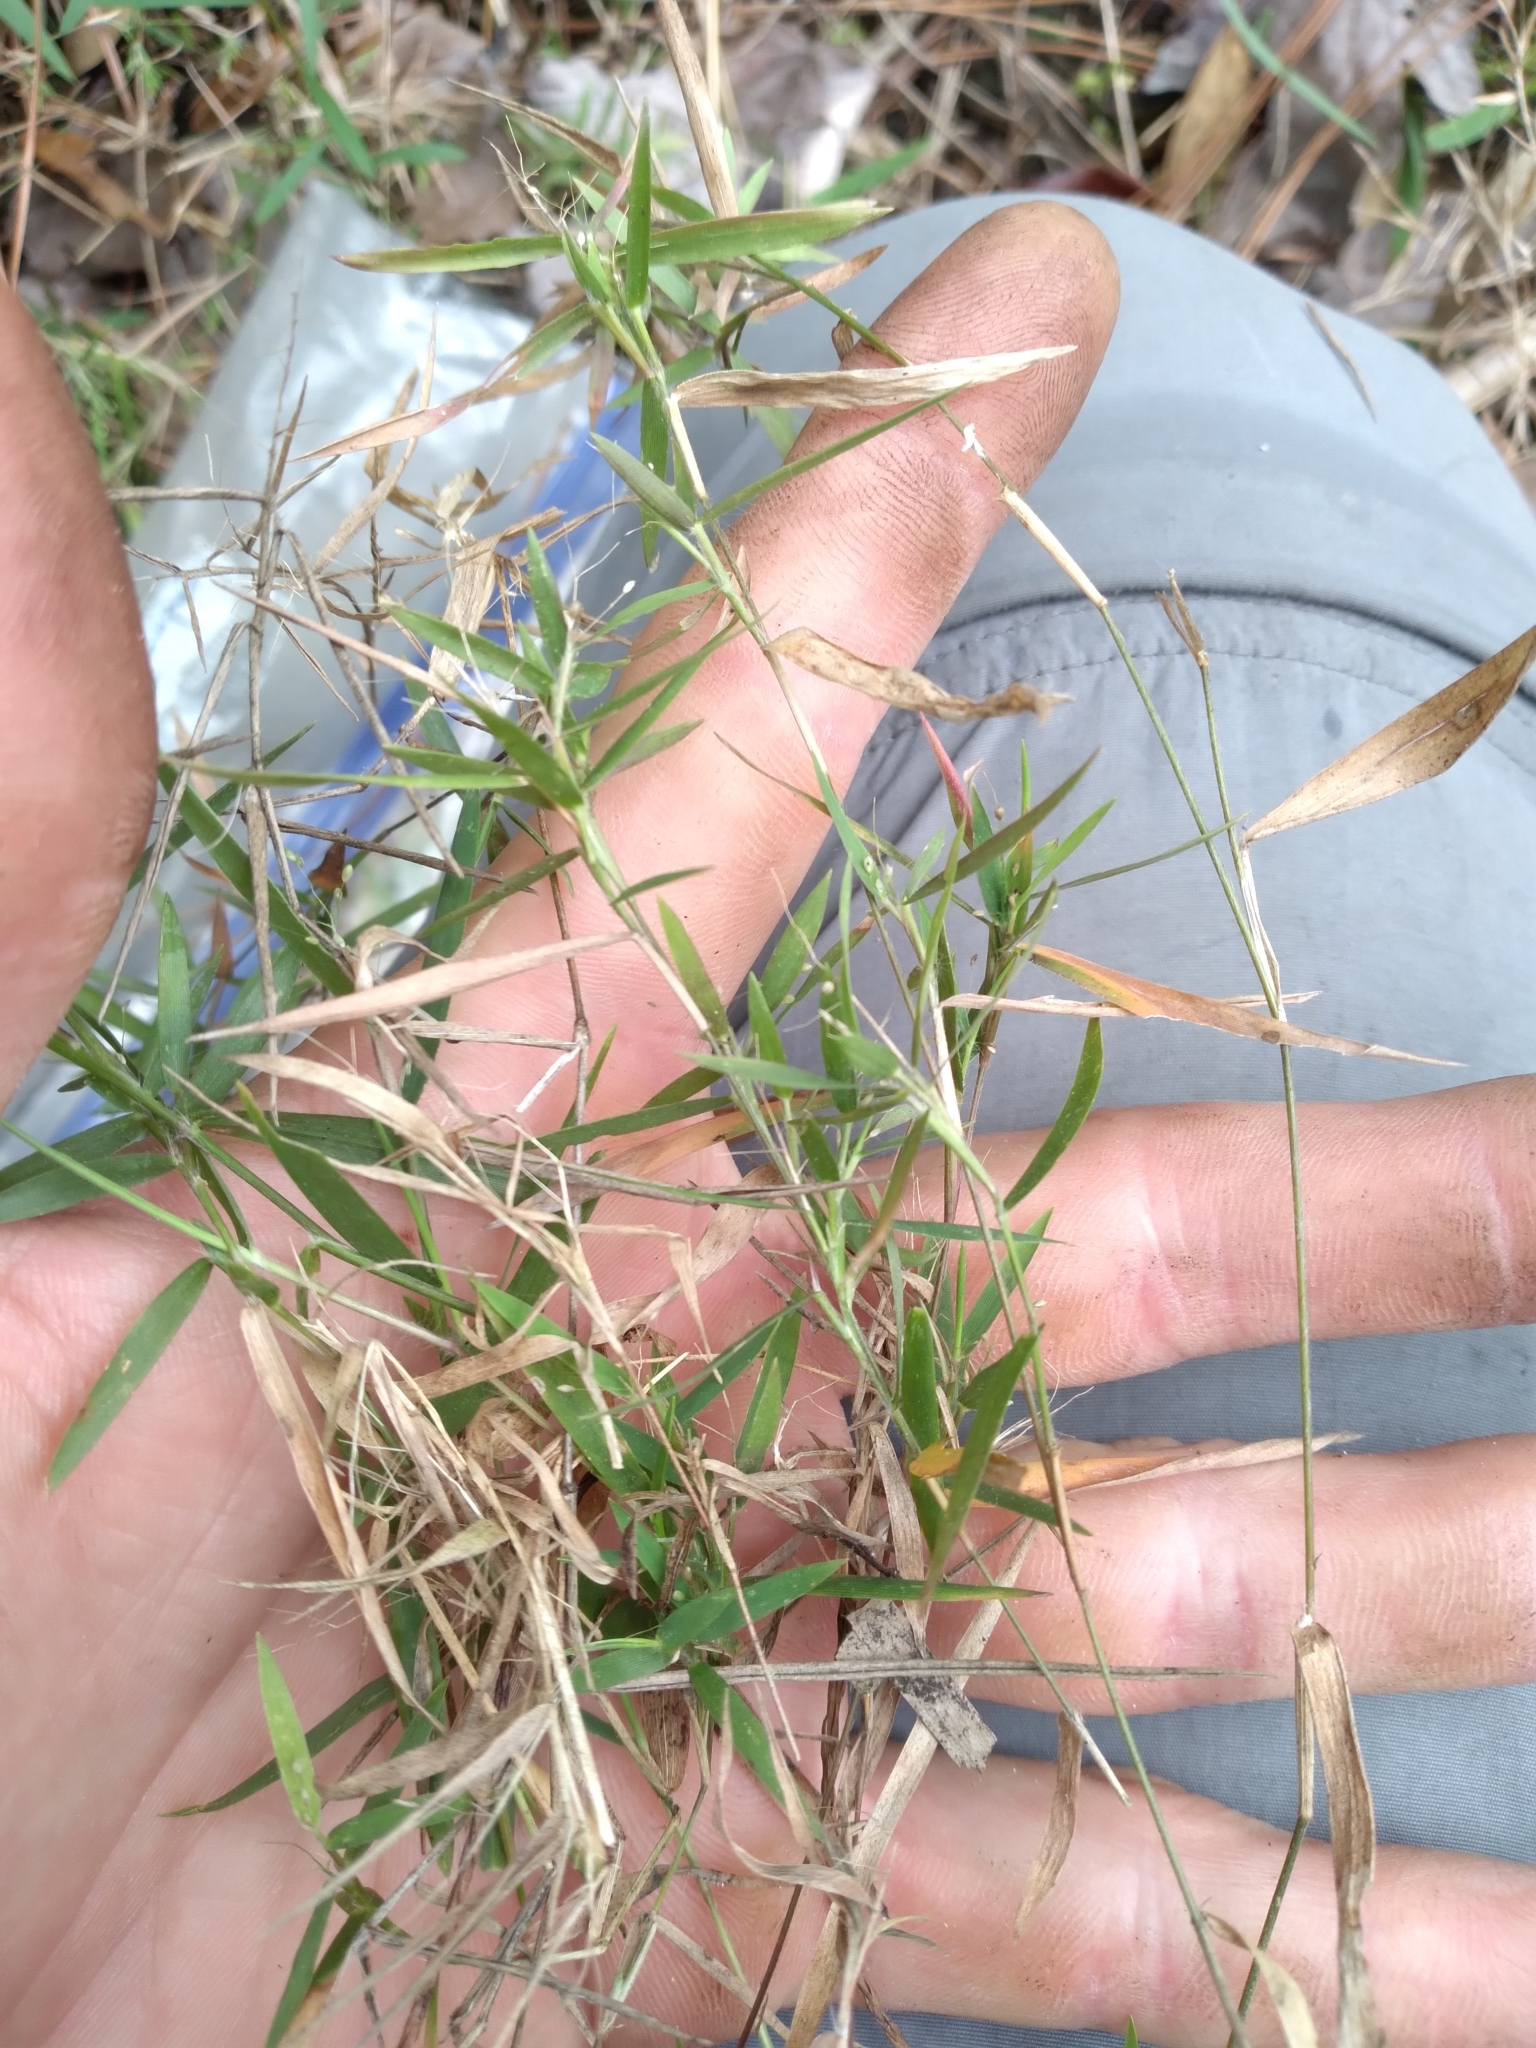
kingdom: Plantae
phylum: Tracheophyta
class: Liliopsida
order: Poales
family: Poaceae
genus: Dichanthelium
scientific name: Dichanthelium leucothrix
